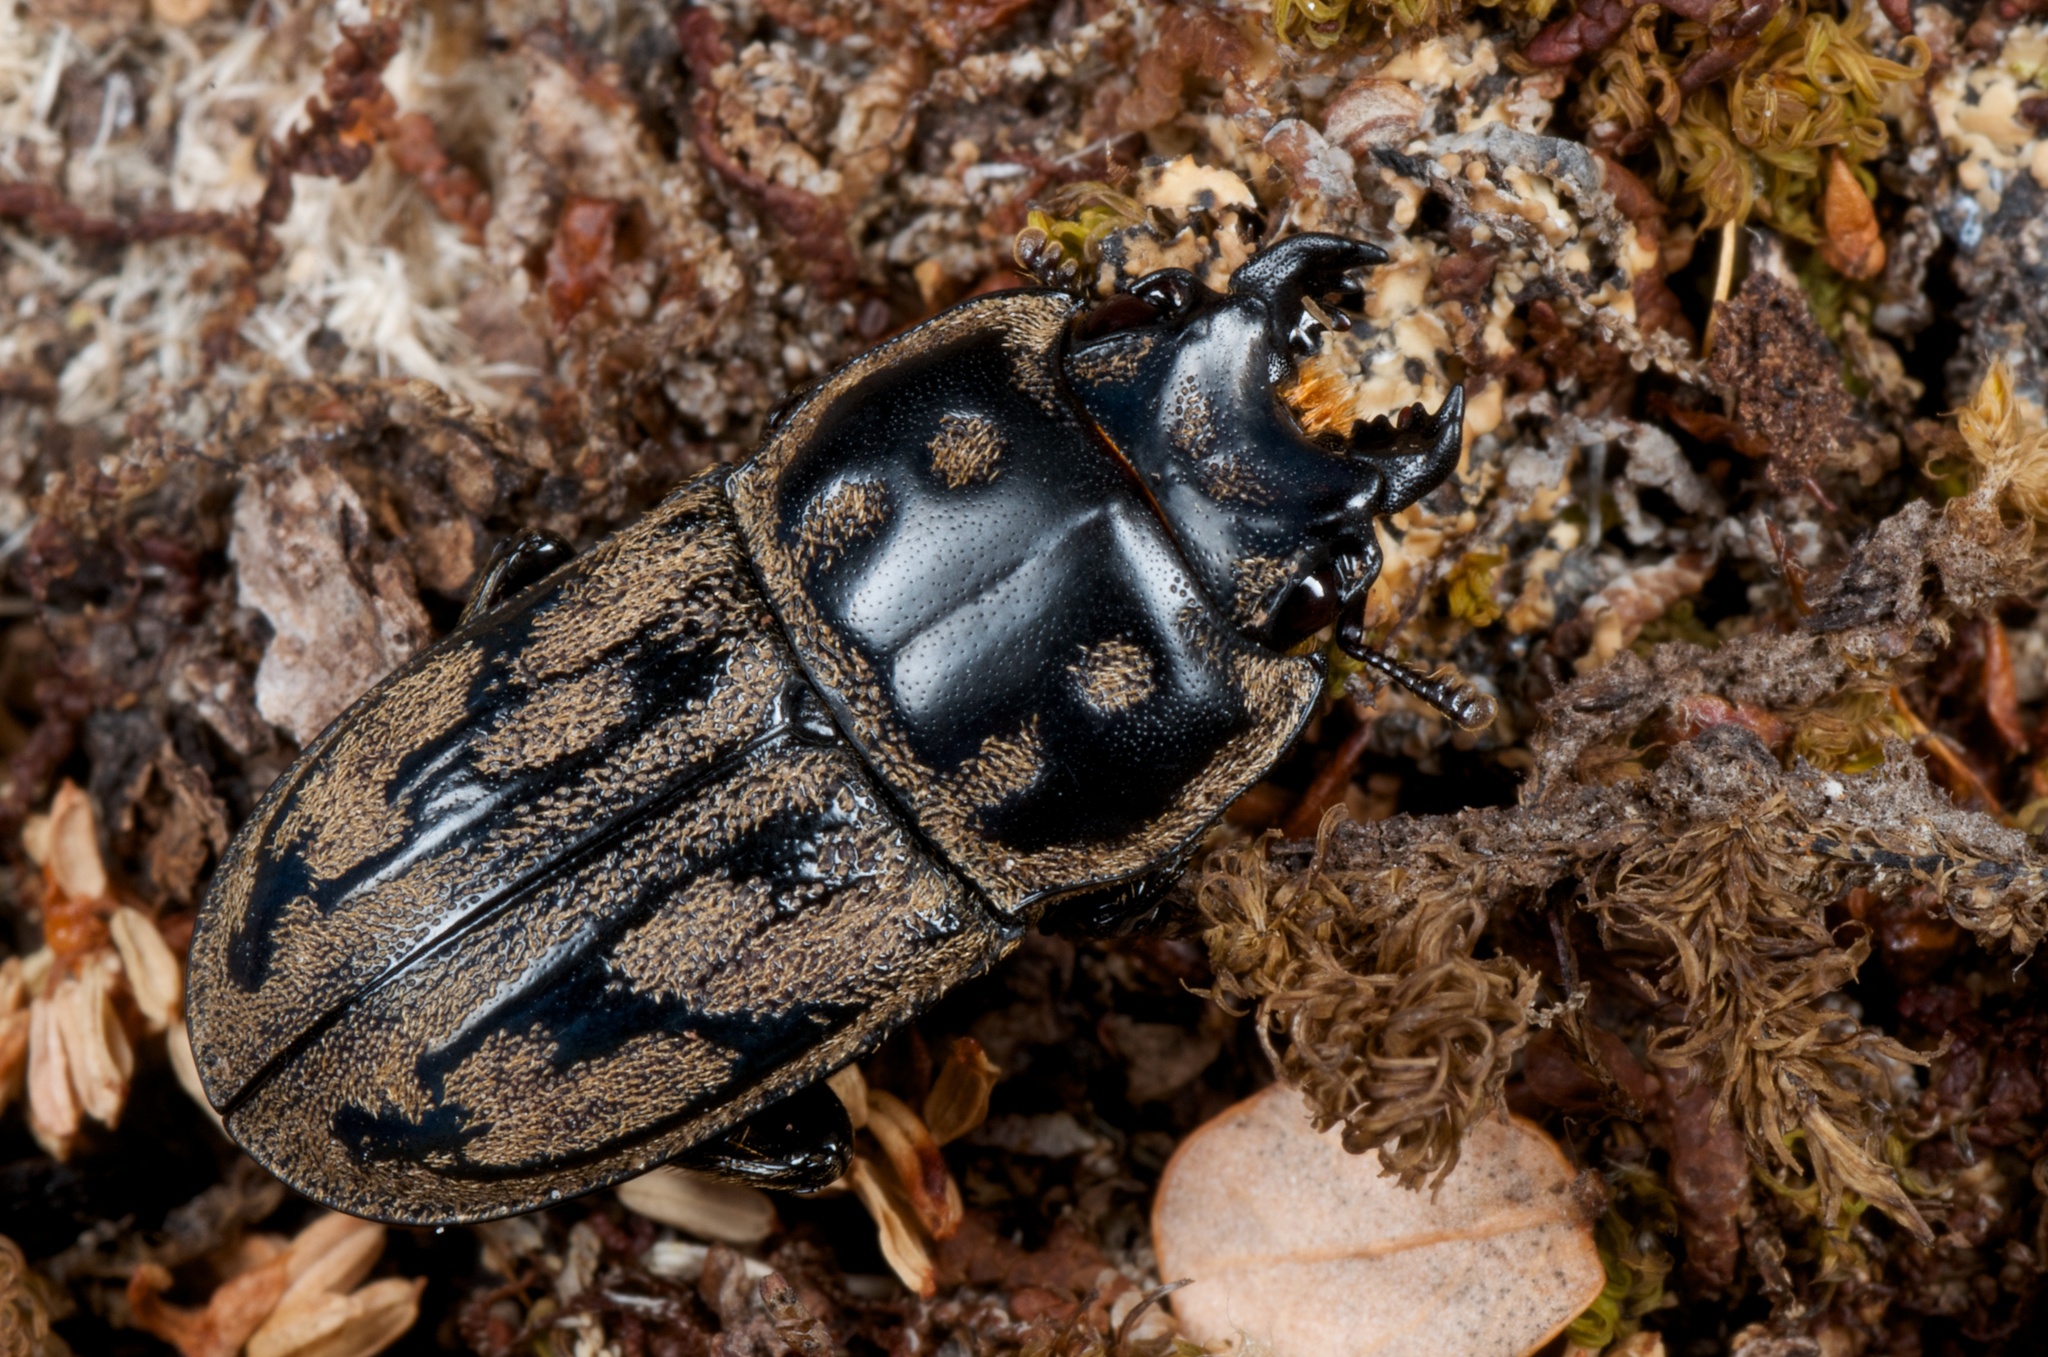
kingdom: Animalia
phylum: Arthropoda
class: Insecta
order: Coleoptera
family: Lucanidae
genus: Paralissotes
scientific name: Paralissotes reticulatus
